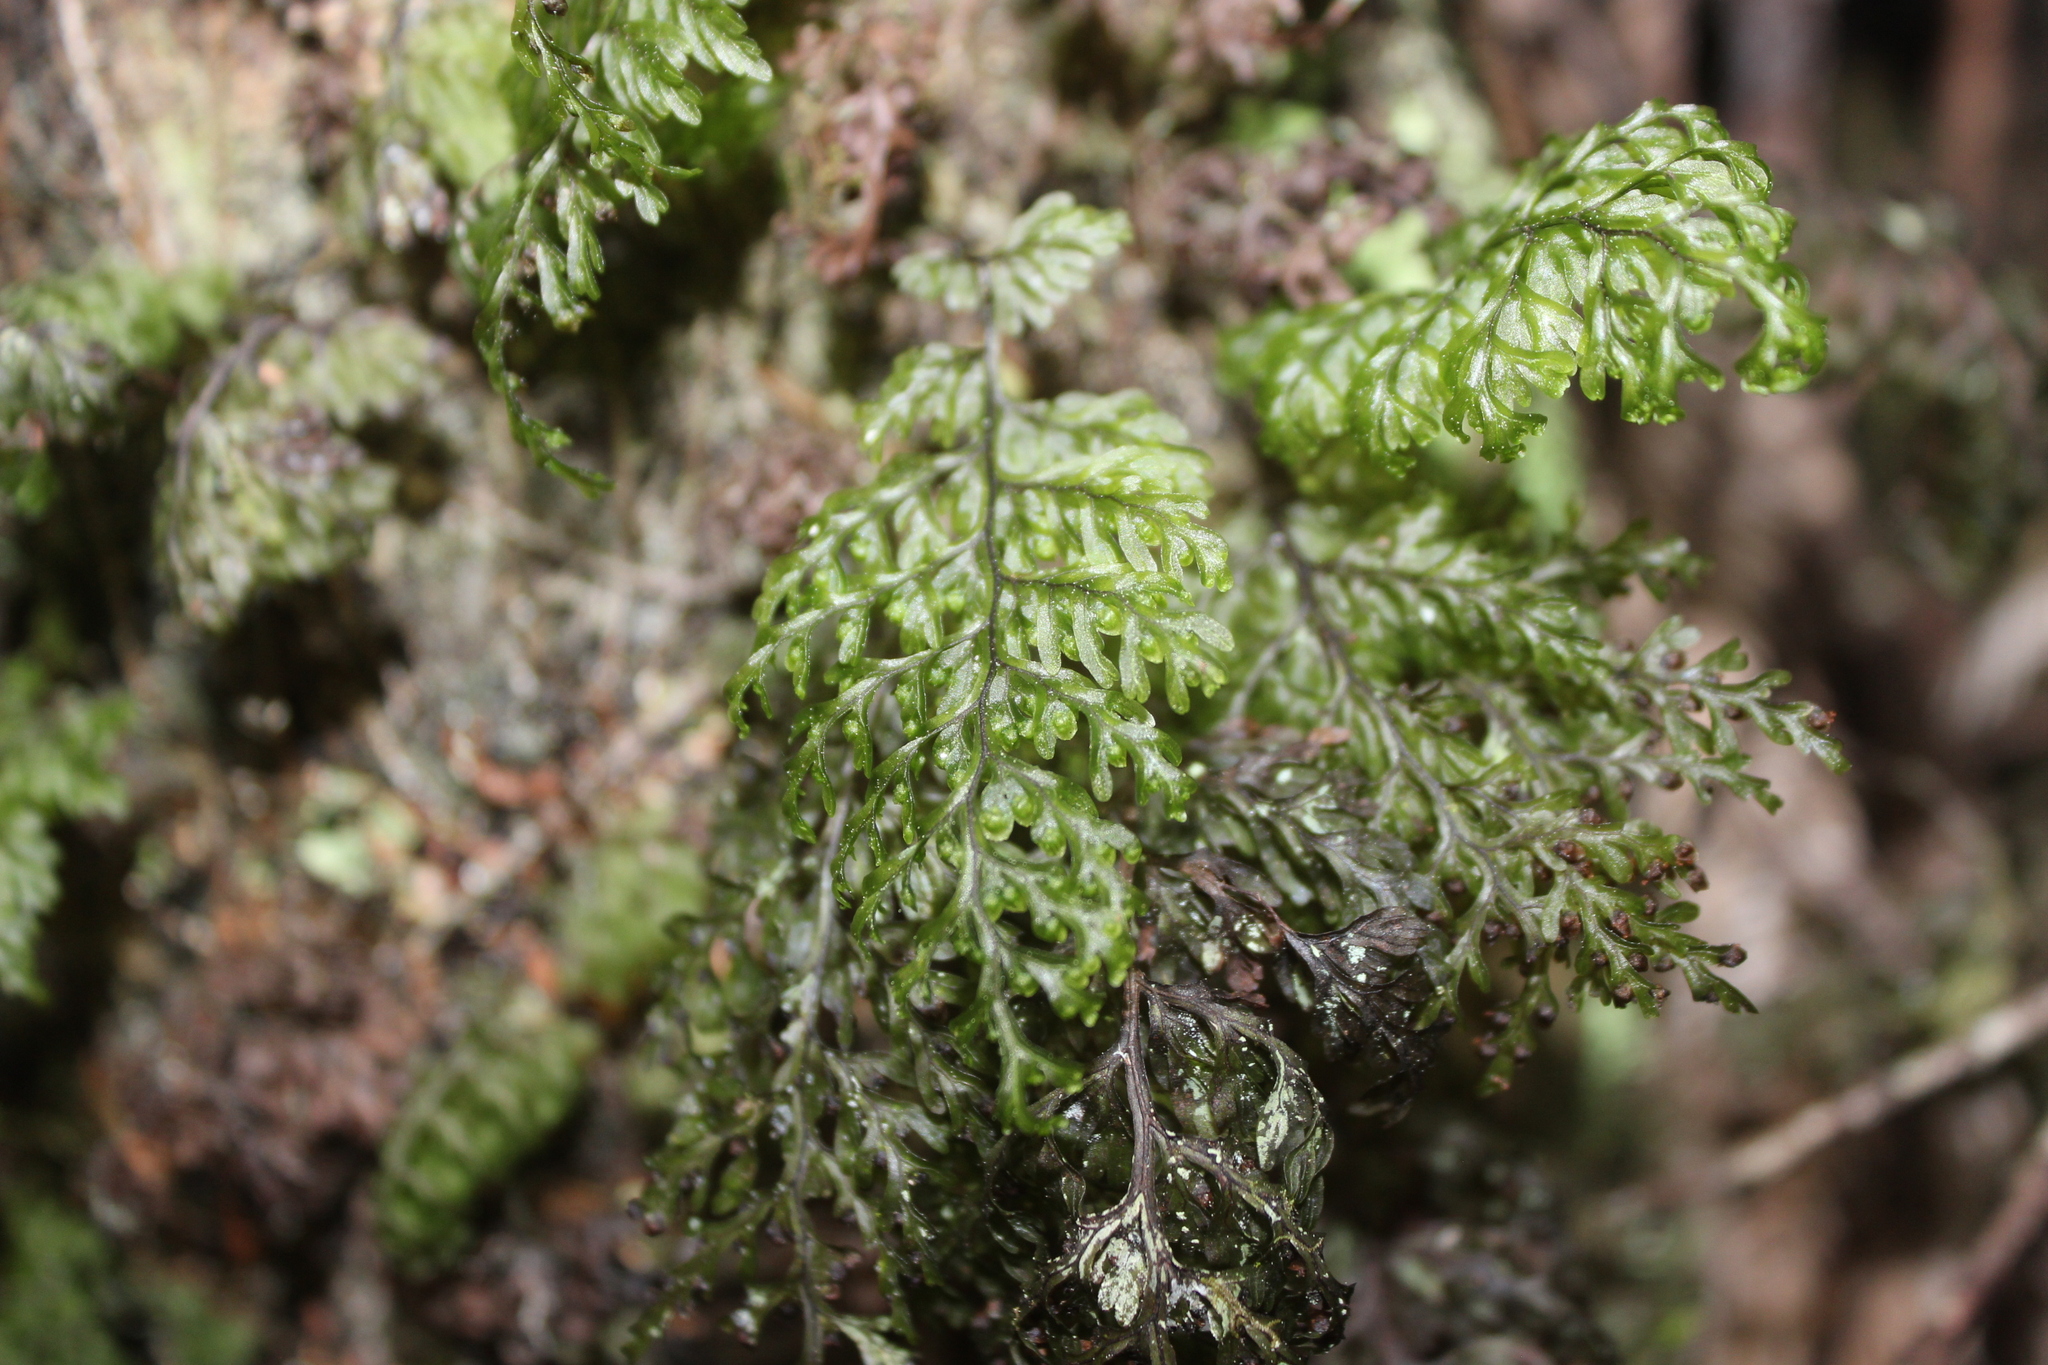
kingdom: Plantae
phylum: Tracheophyta
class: Polypodiopsida
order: Hymenophyllales
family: Hymenophyllaceae
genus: Hymenophyllum
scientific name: Hymenophyllum sanguinolentum
